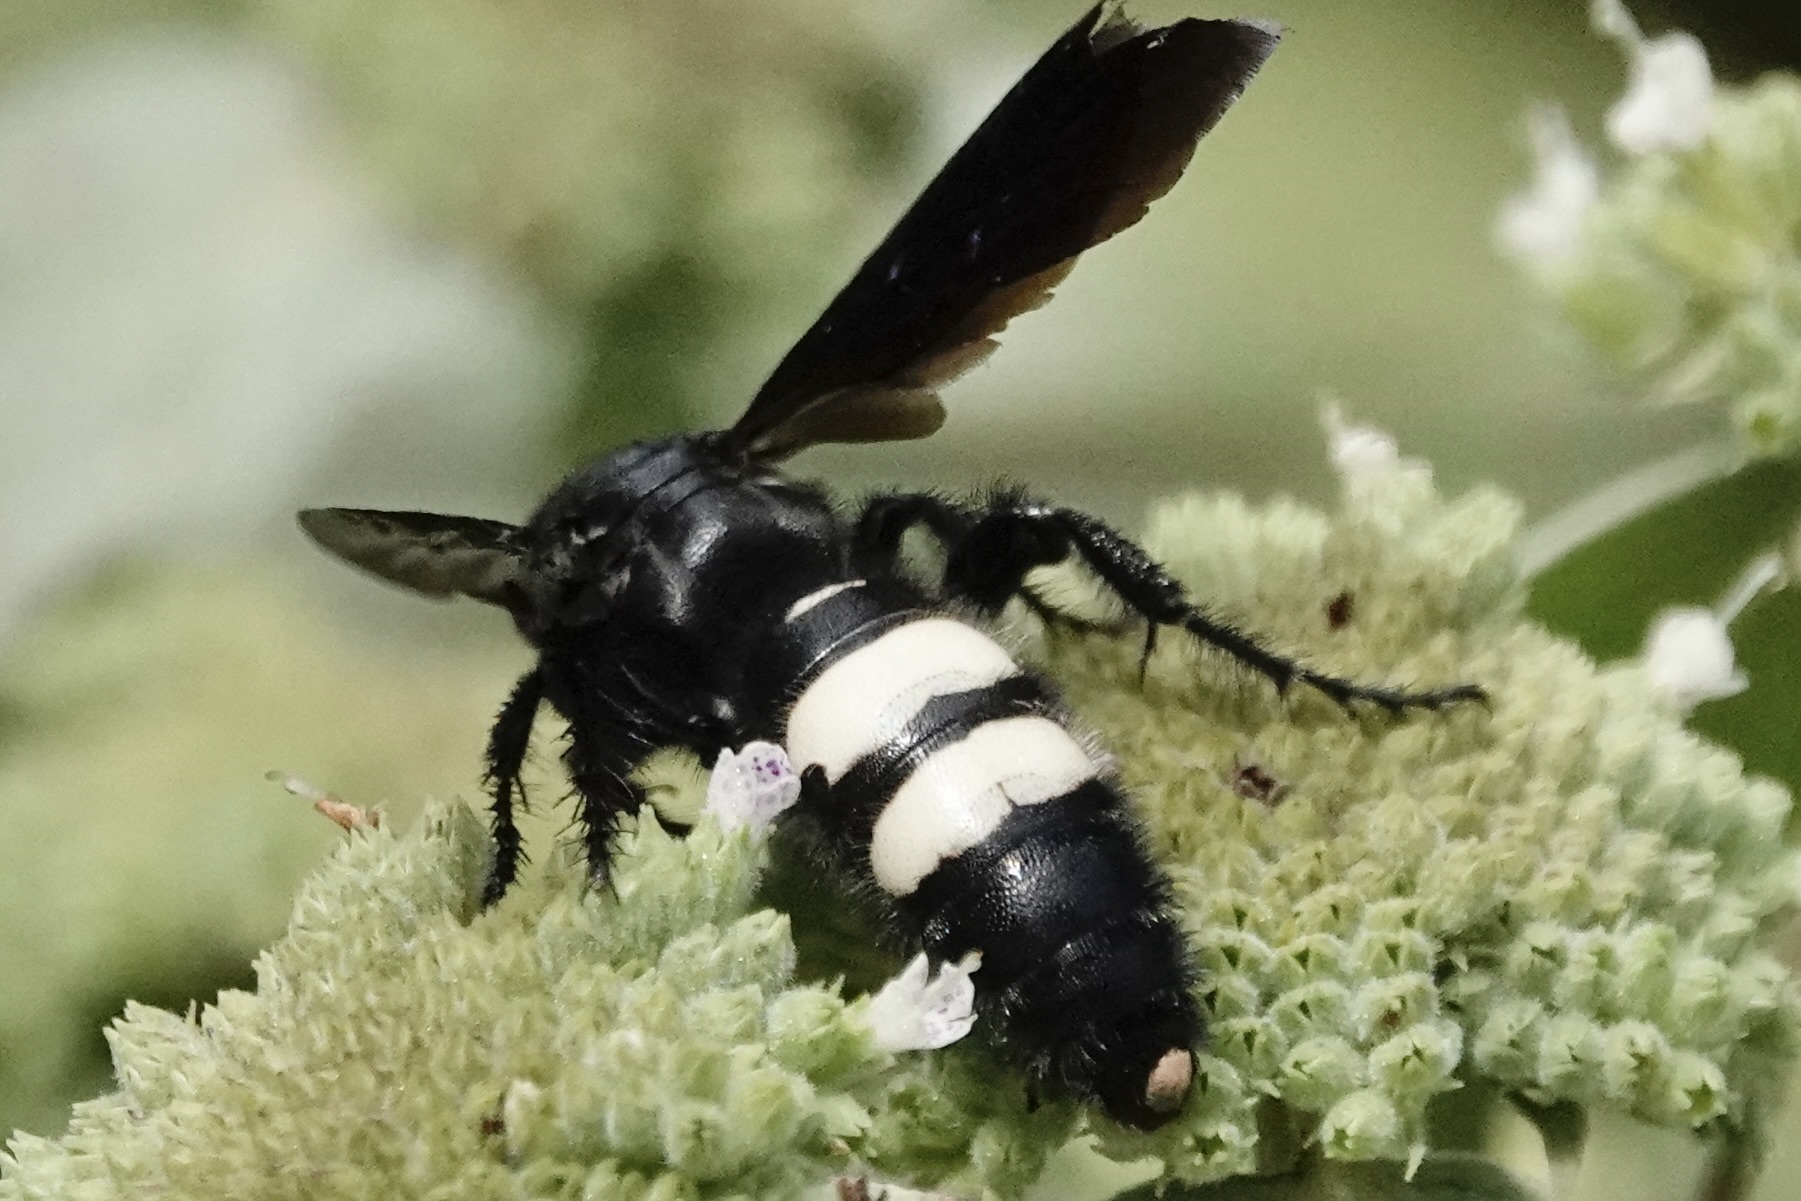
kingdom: Animalia
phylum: Arthropoda
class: Insecta
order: Hymenoptera
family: Scoliidae
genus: Scolia
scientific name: Scolia bicincta
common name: Double-banded scoliid wasp
